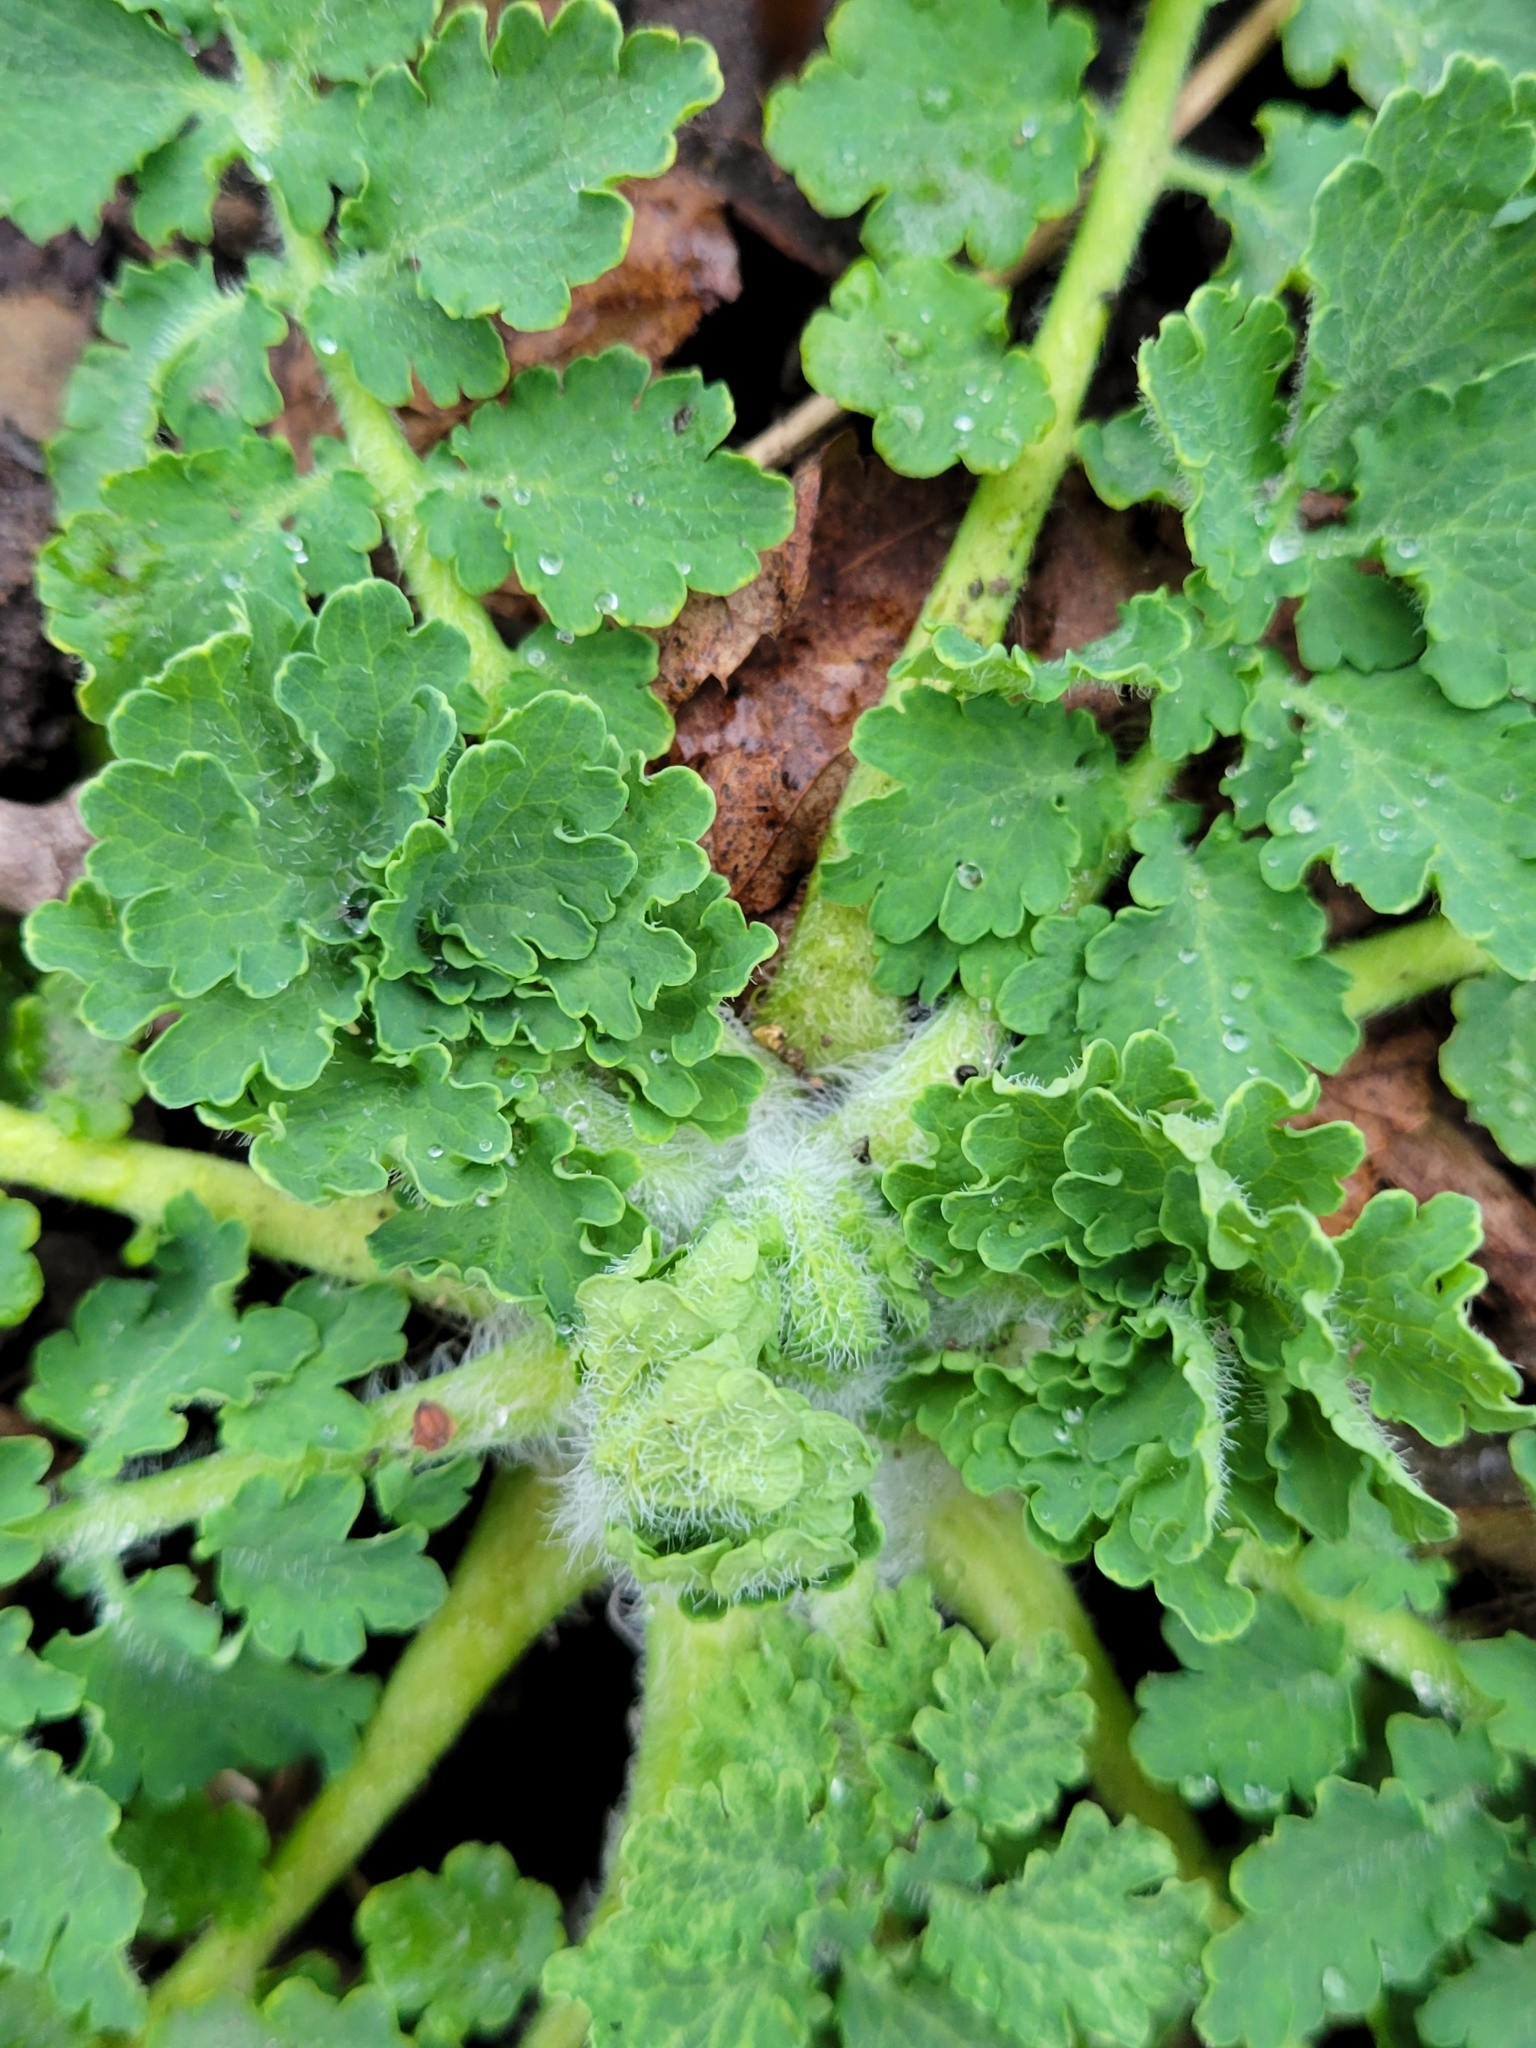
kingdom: Plantae
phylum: Tracheophyta
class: Magnoliopsida
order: Ranunculales
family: Papaveraceae
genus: Chelidonium
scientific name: Chelidonium majus
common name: Greater celandine
